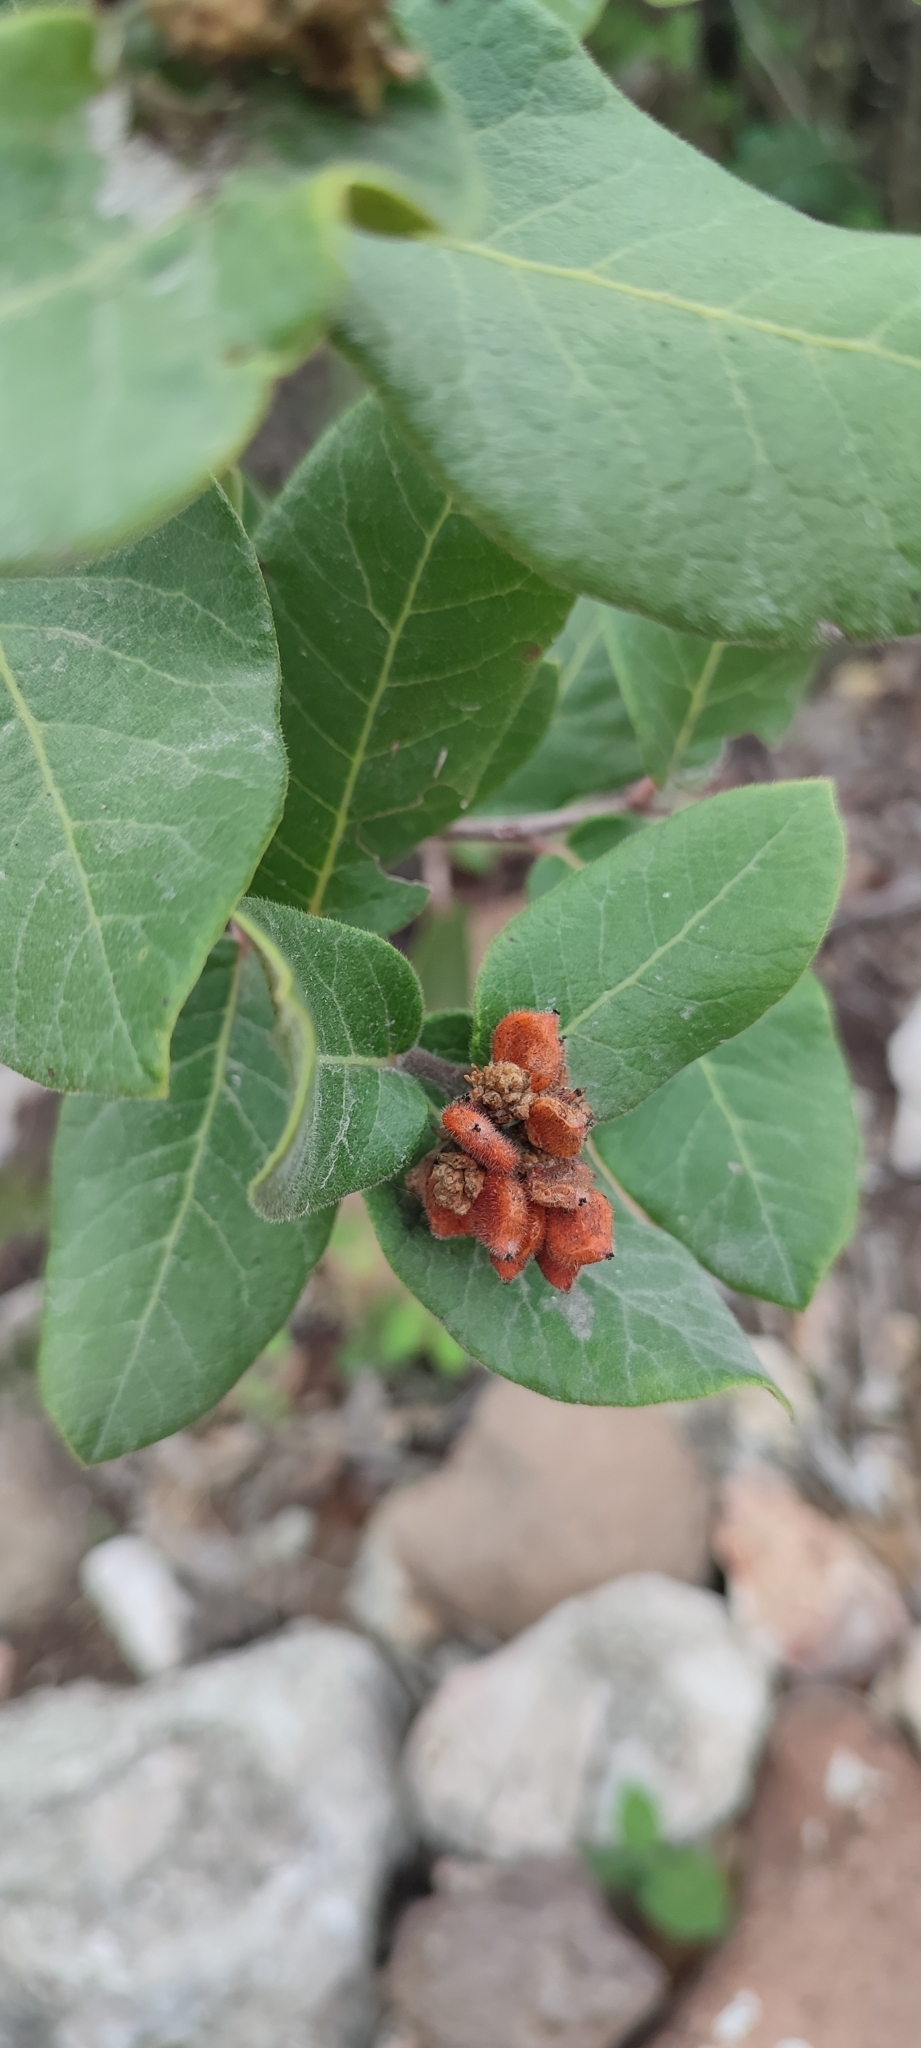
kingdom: Plantae
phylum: Tracheophyta
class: Magnoliopsida
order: Sapindales
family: Anacardiaceae
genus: Rhus
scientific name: Rhus standleyi
